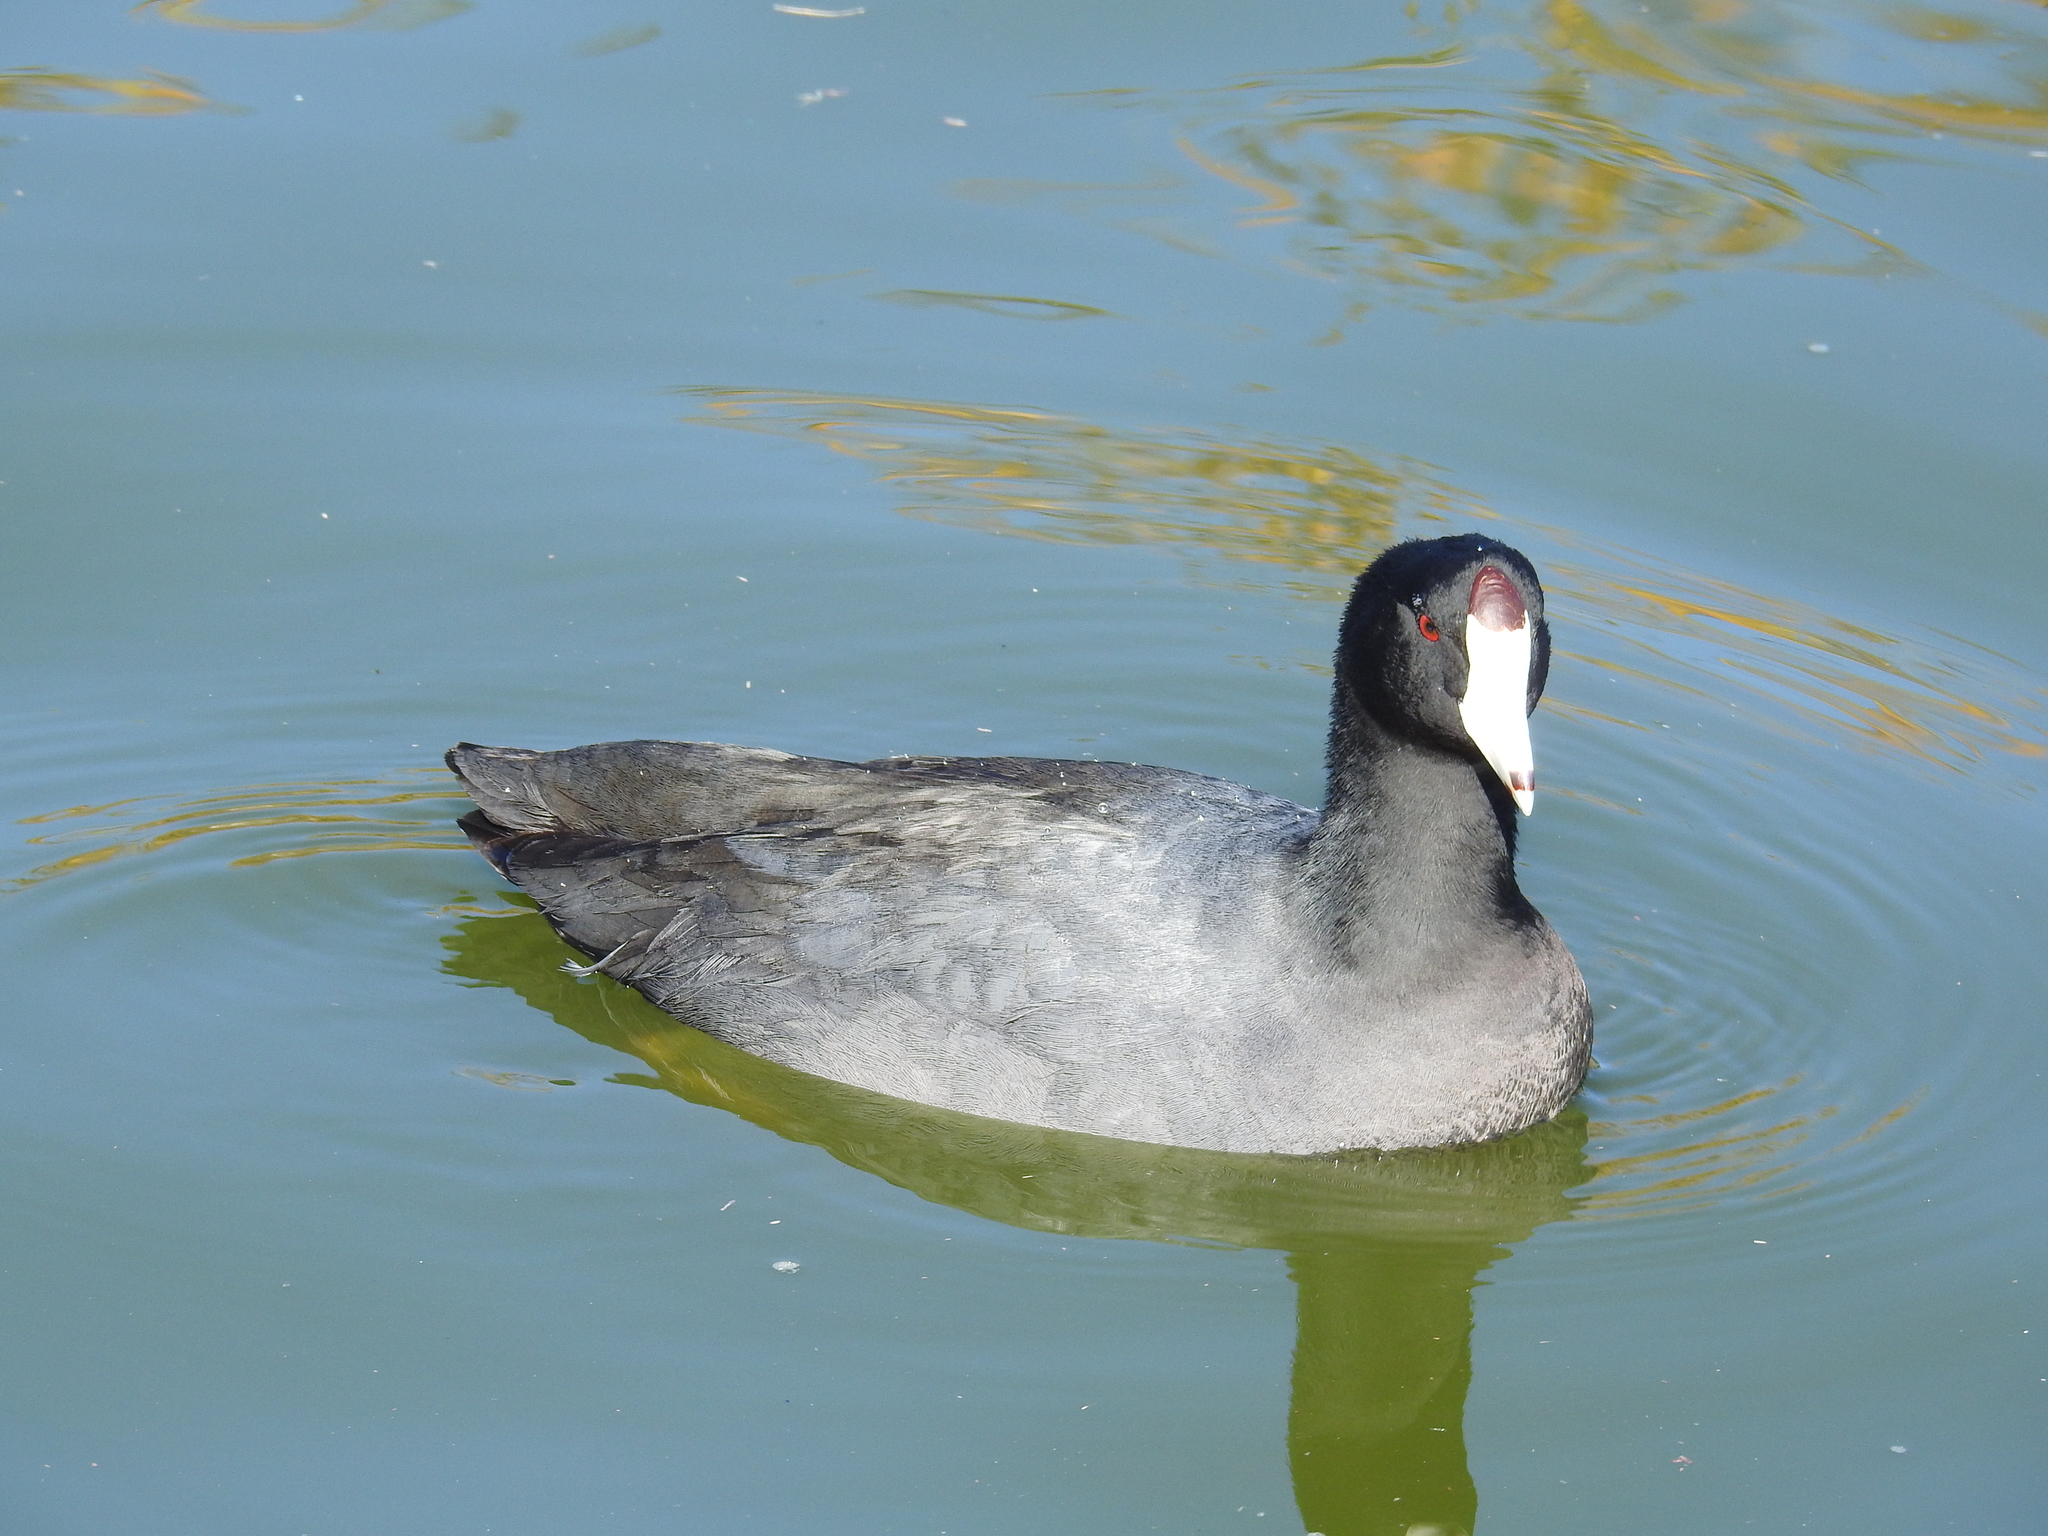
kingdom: Animalia
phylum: Chordata
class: Aves
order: Gruiformes
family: Rallidae
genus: Fulica
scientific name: Fulica americana
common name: American coot
